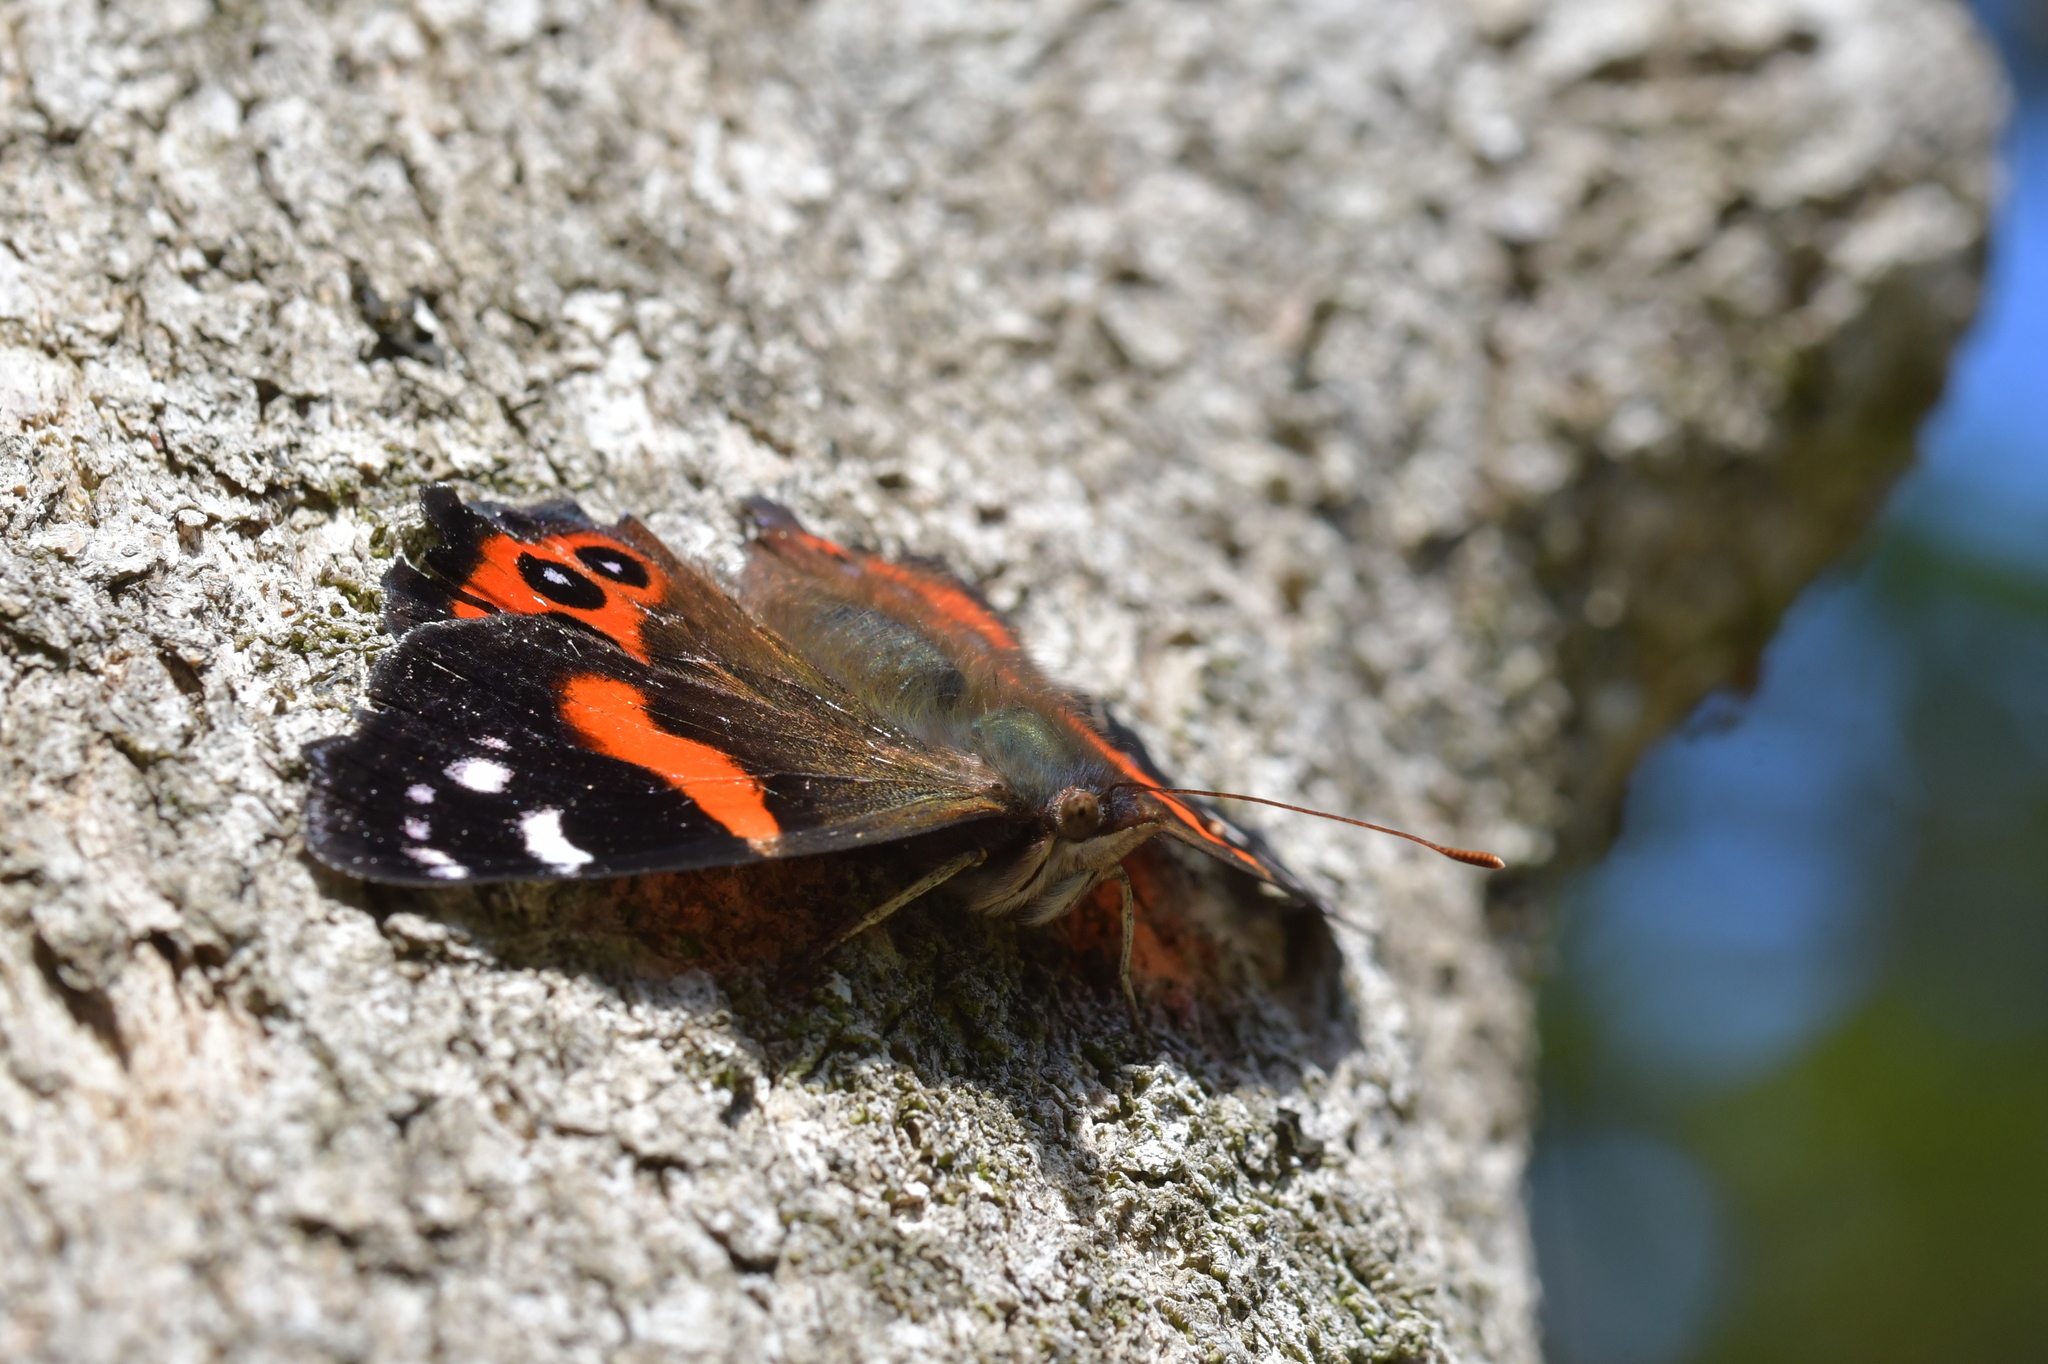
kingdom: Animalia
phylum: Arthropoda
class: Insecta
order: Lepidoptera
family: Nymphalidae
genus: Vanessa
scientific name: Vanessa gonerilla
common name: New zealand red admiral
